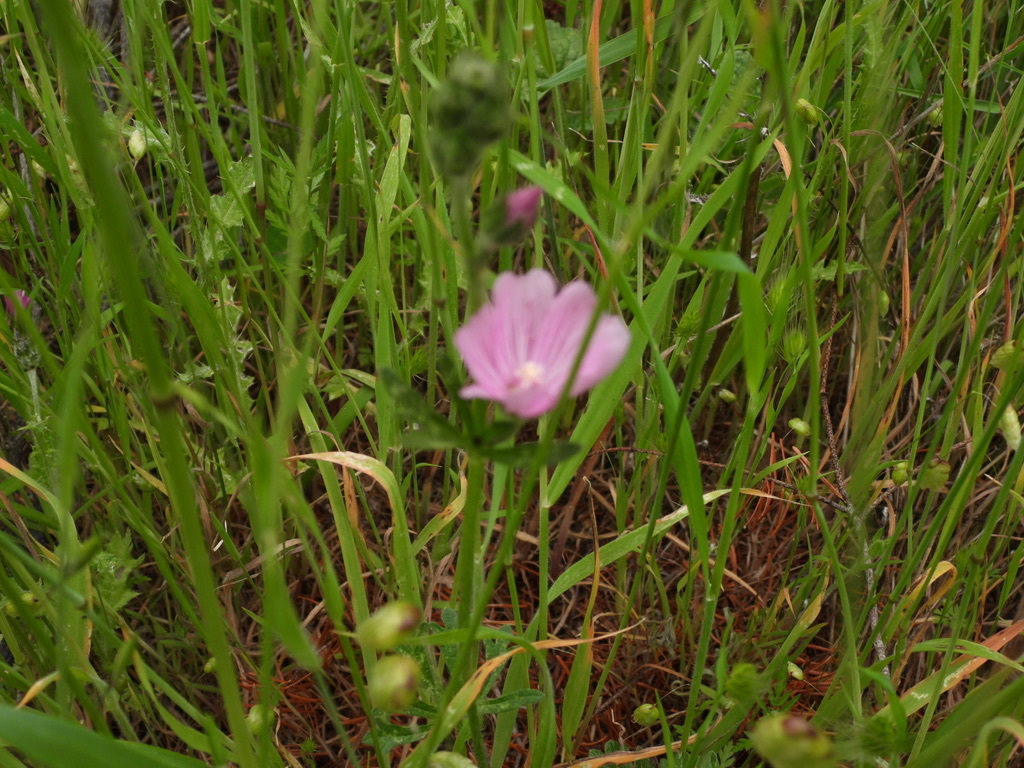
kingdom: Plantae
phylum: Tracheophyta
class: Magnoliopsida
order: Malvales
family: Malvaceae
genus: Sidalcea
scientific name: Sidalcea malviflora
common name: Greek mallow
